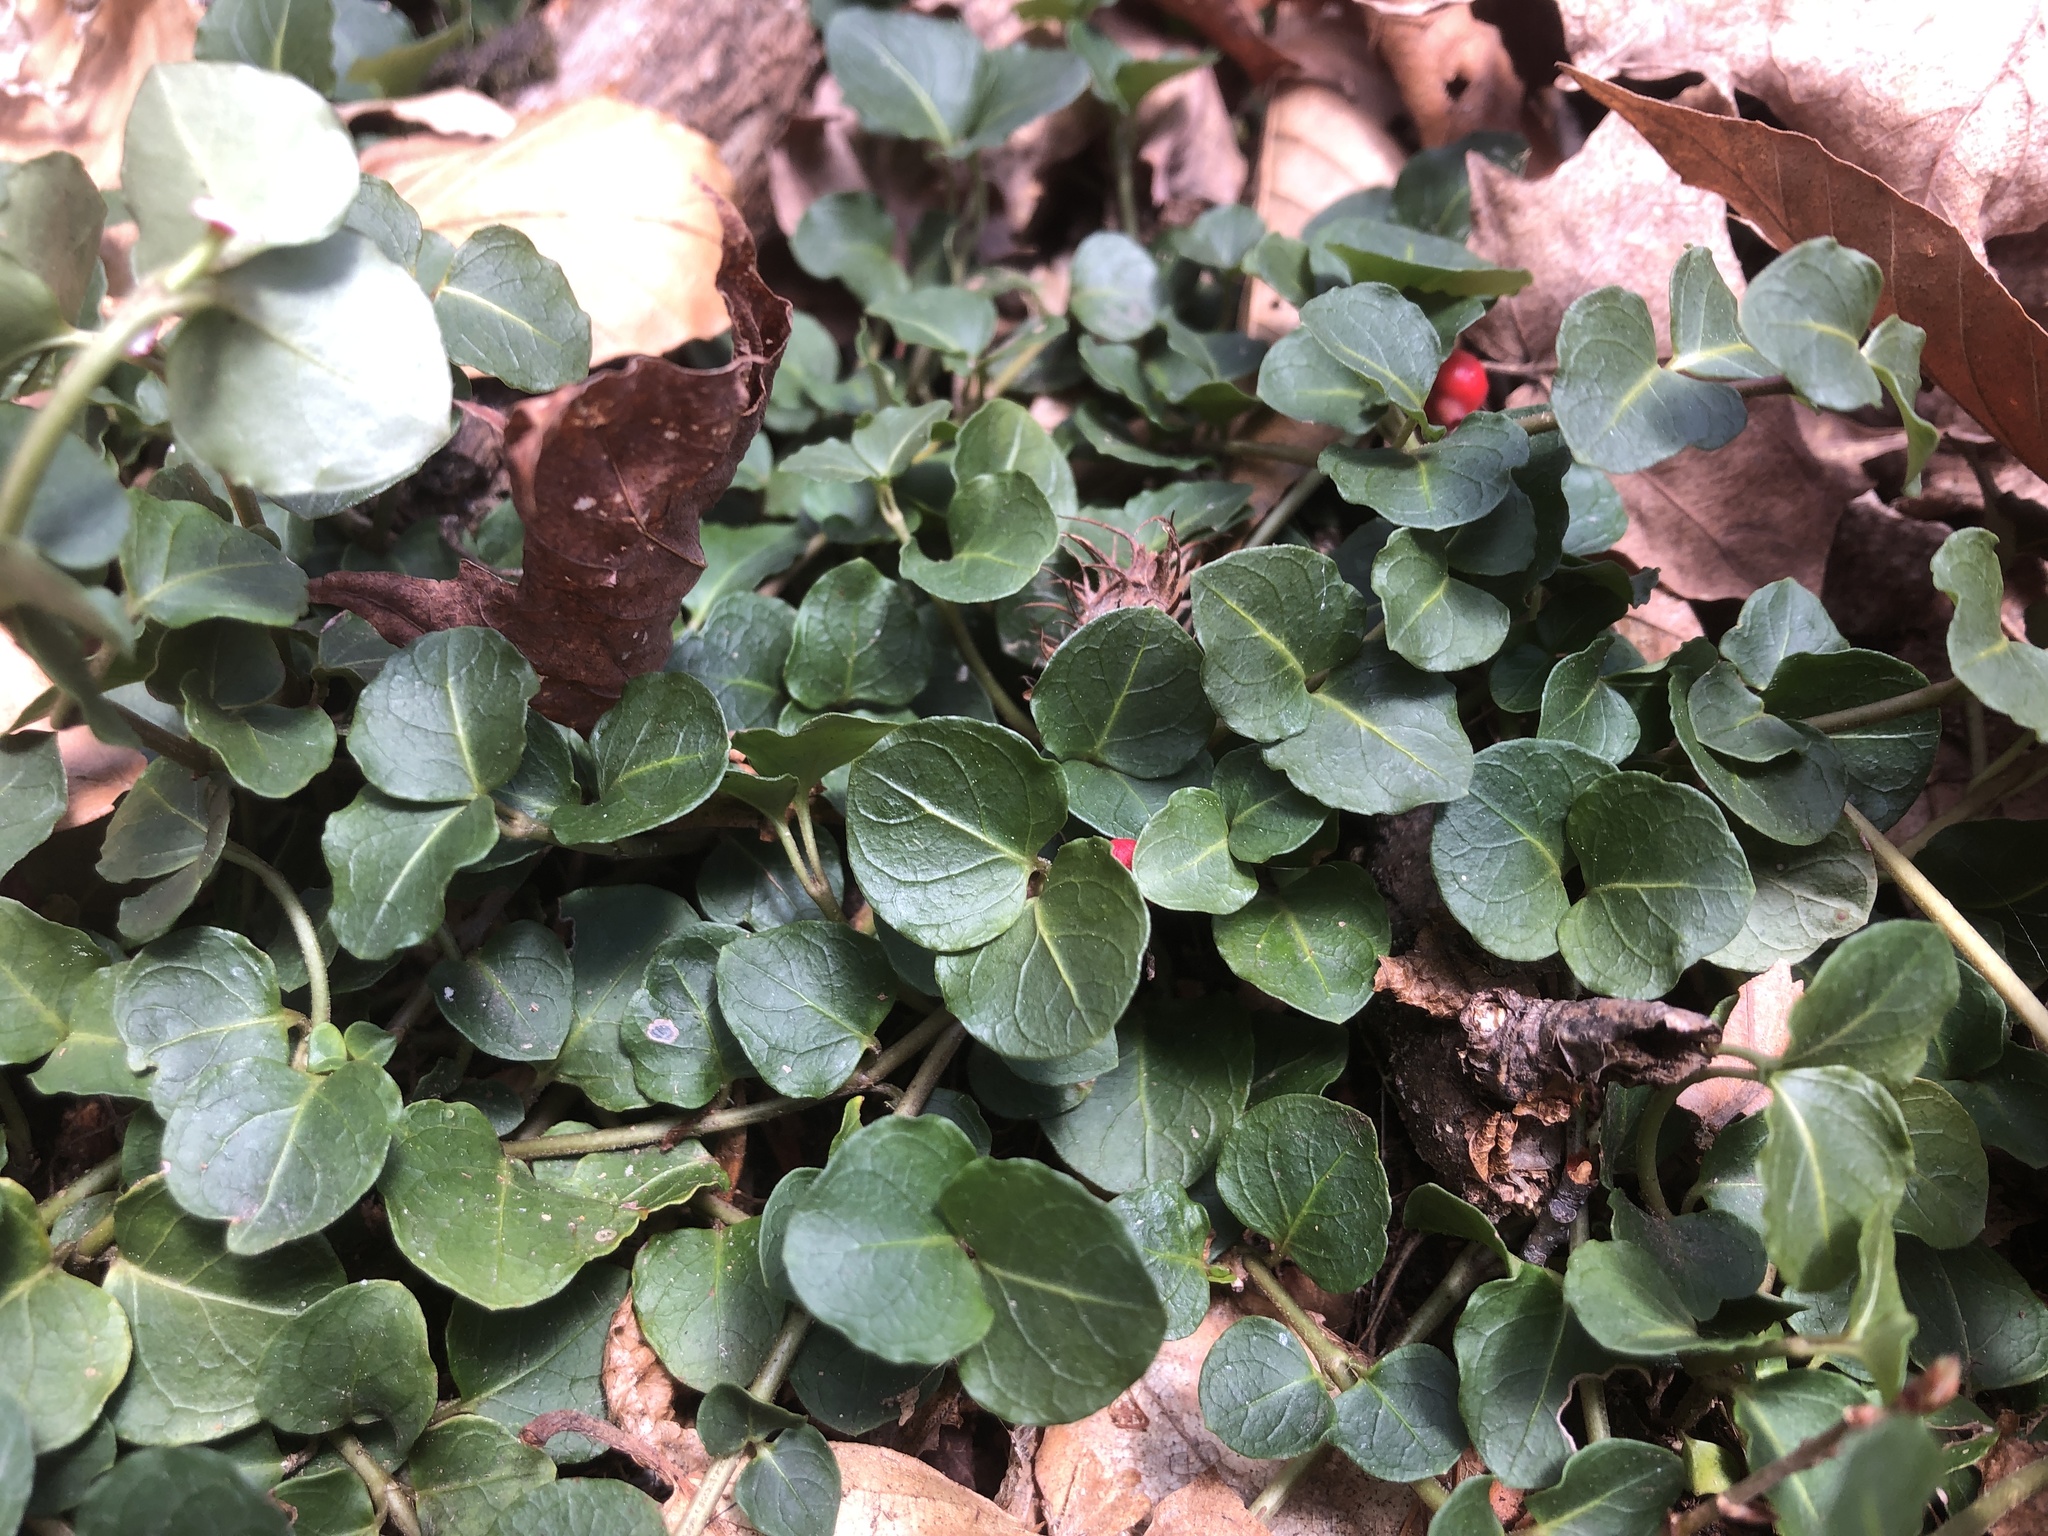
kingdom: Plantae
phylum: Tracheophyta
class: Magnoliopsida
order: Gentianales
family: Rubiaceae
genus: Mitchella
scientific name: Mitchella repens
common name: Partridge-berry
